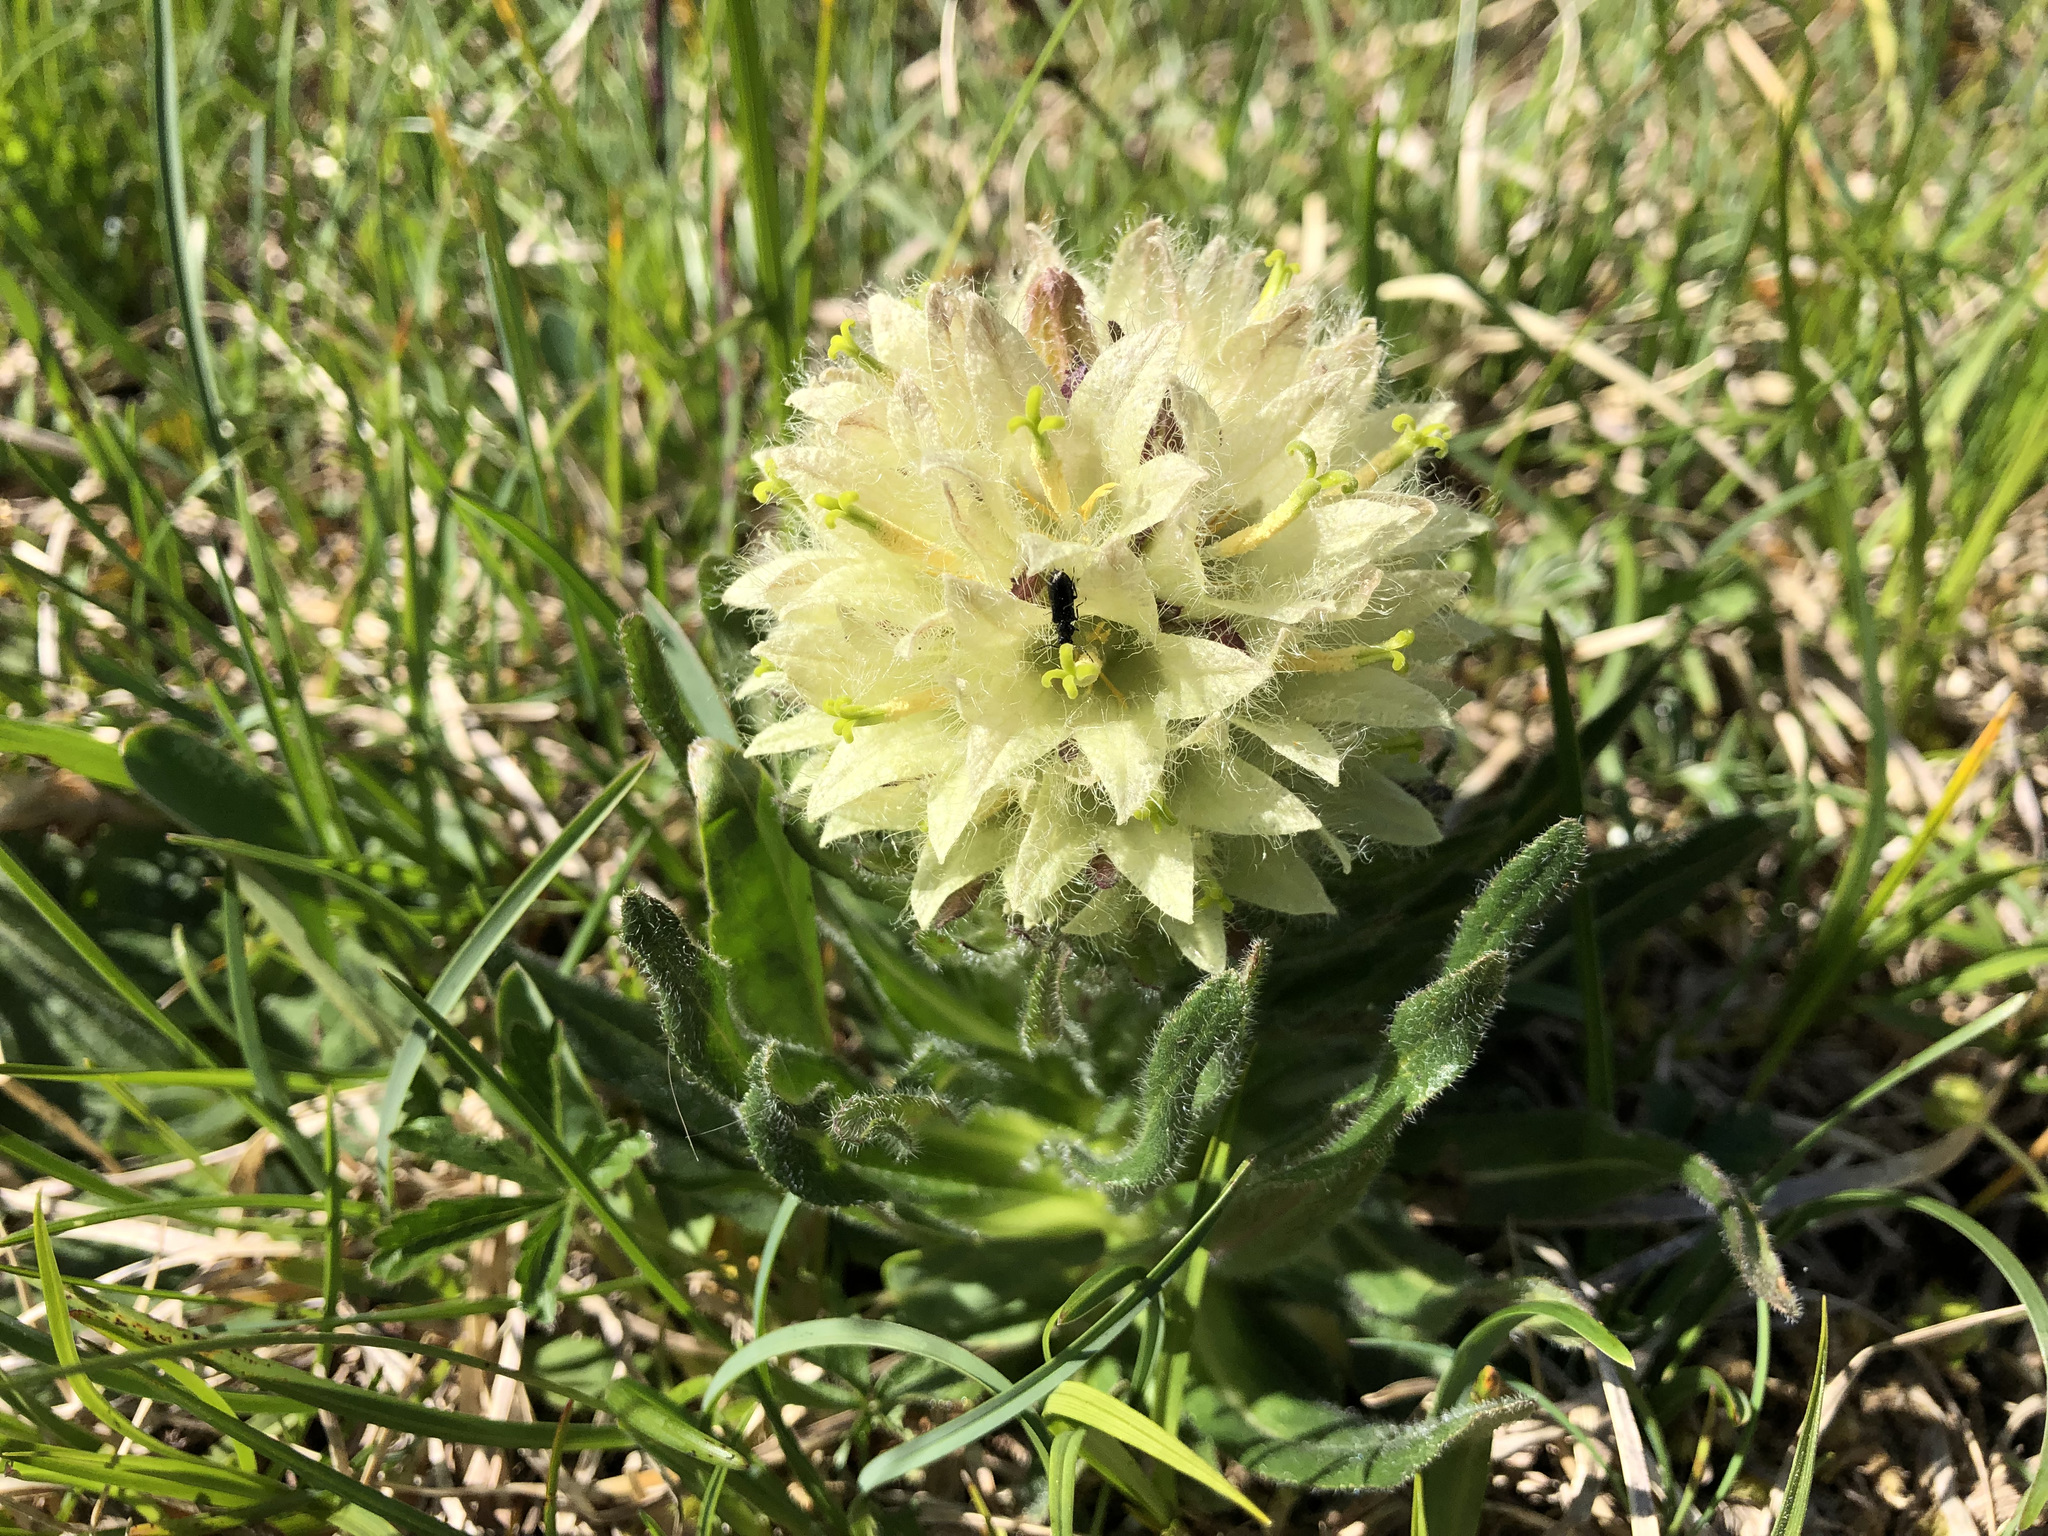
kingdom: Plantae
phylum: Tracheophyta
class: Magnoliopsida
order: Asterales
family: Campanulaceae
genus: Campanula
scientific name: Campanula thyrsoides
